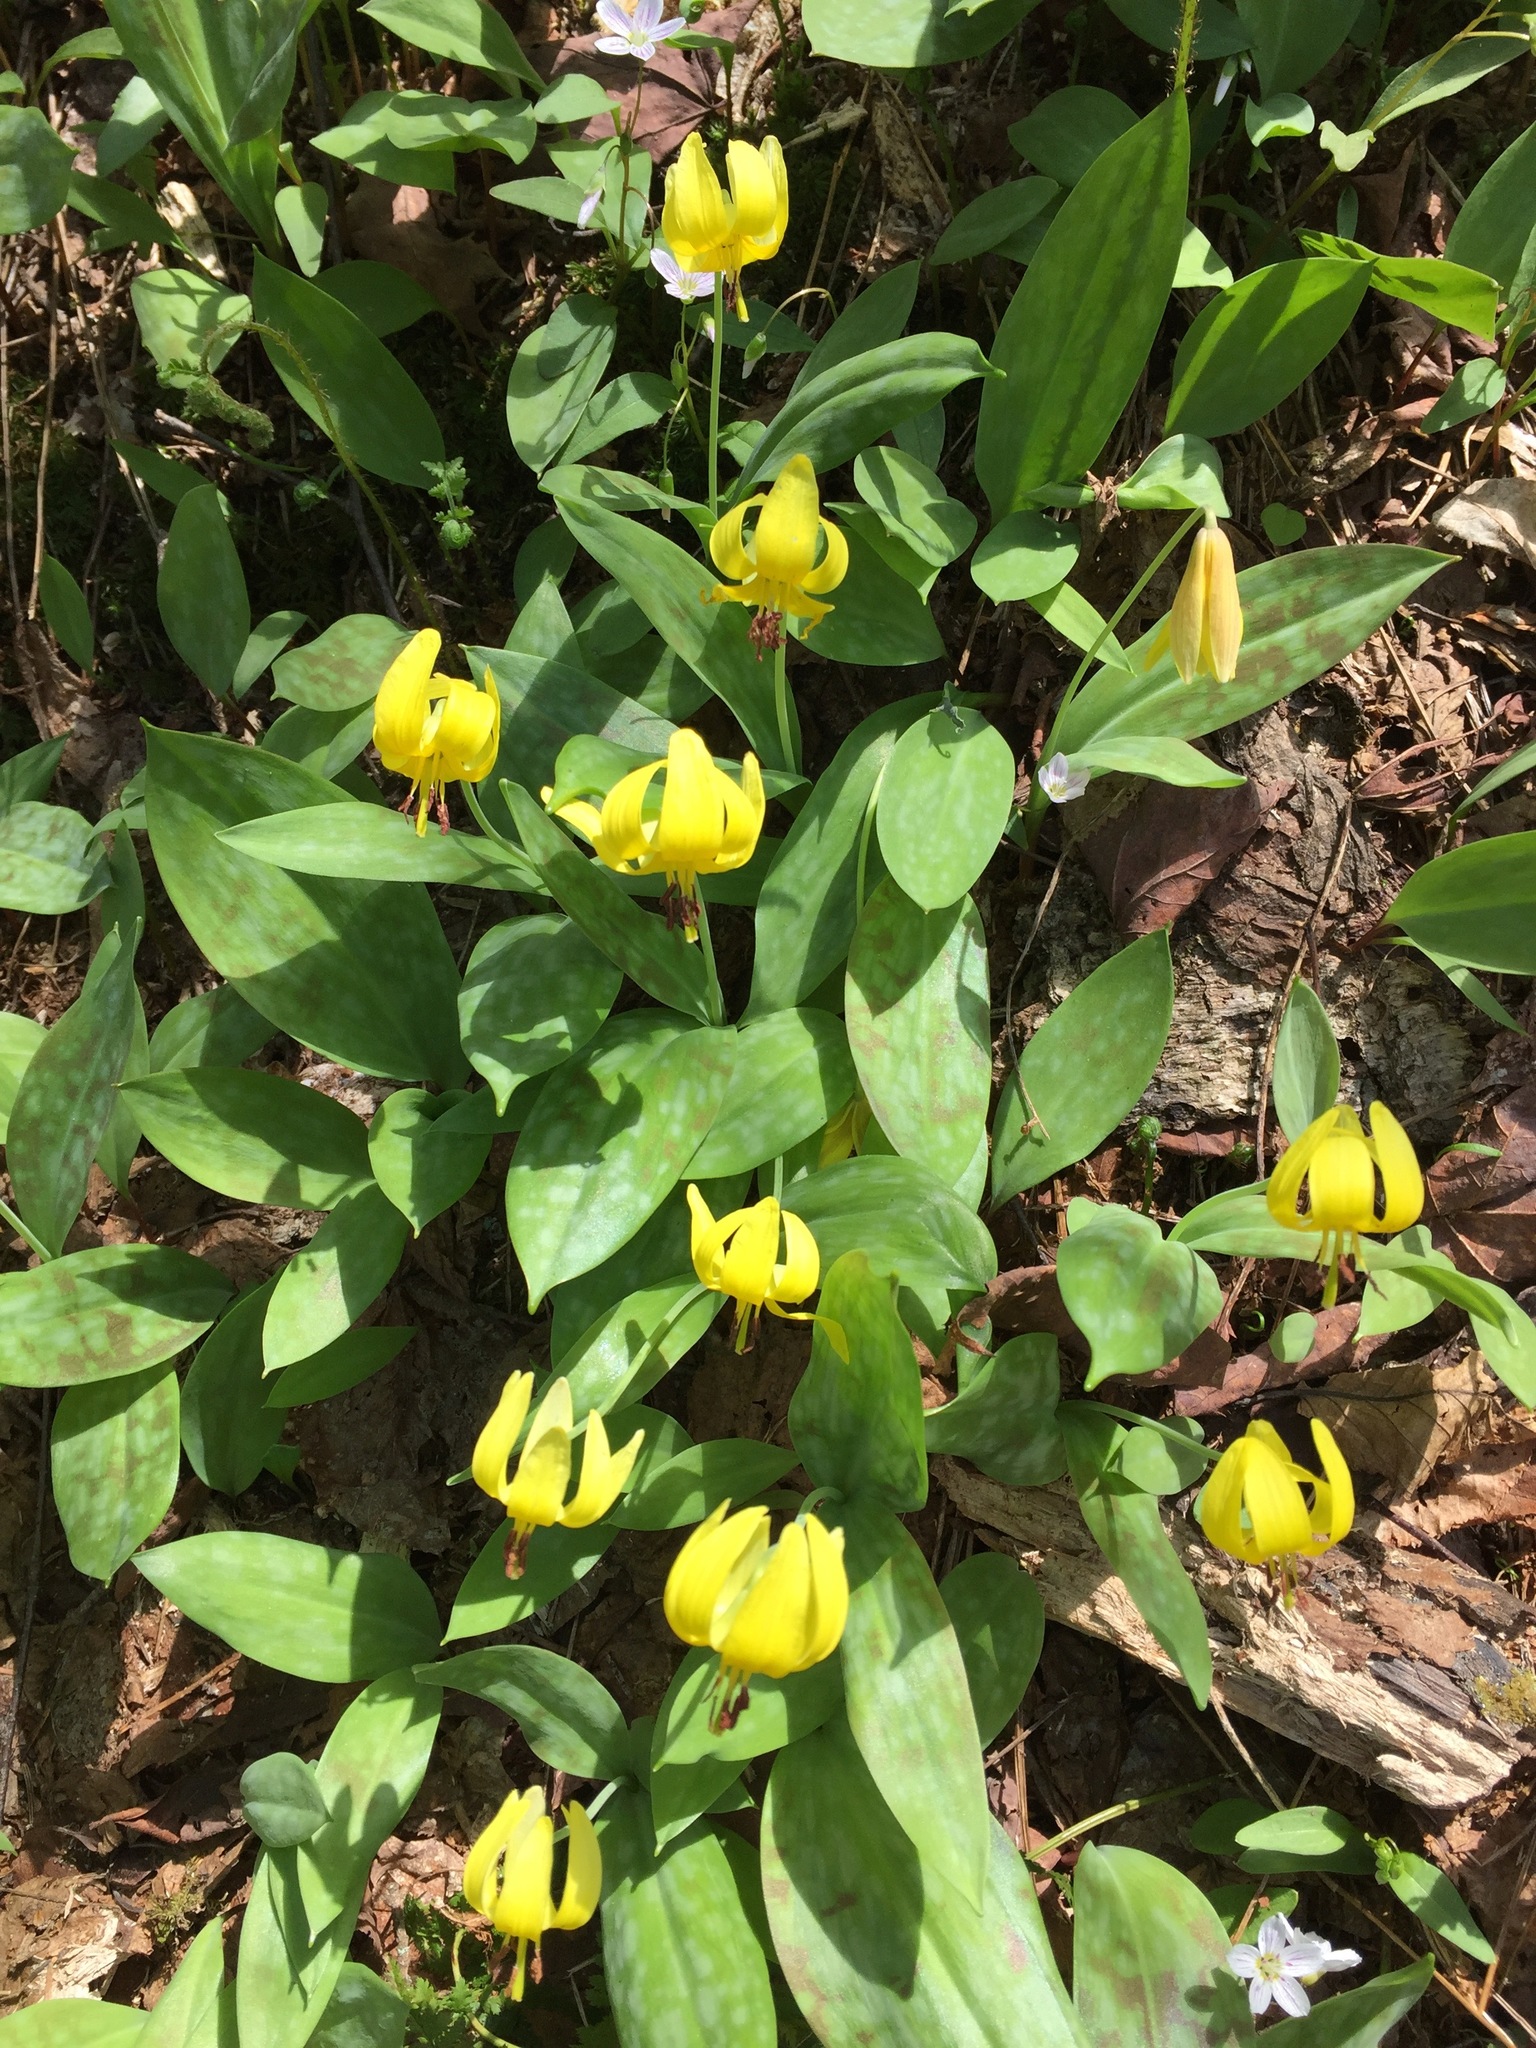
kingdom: Plantae
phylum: Tracheophyta
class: Liliopsida
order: Liliales
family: Liliaceae
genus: Erythronium
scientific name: Erythronium americanum
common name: Yellow adder's-tongue
